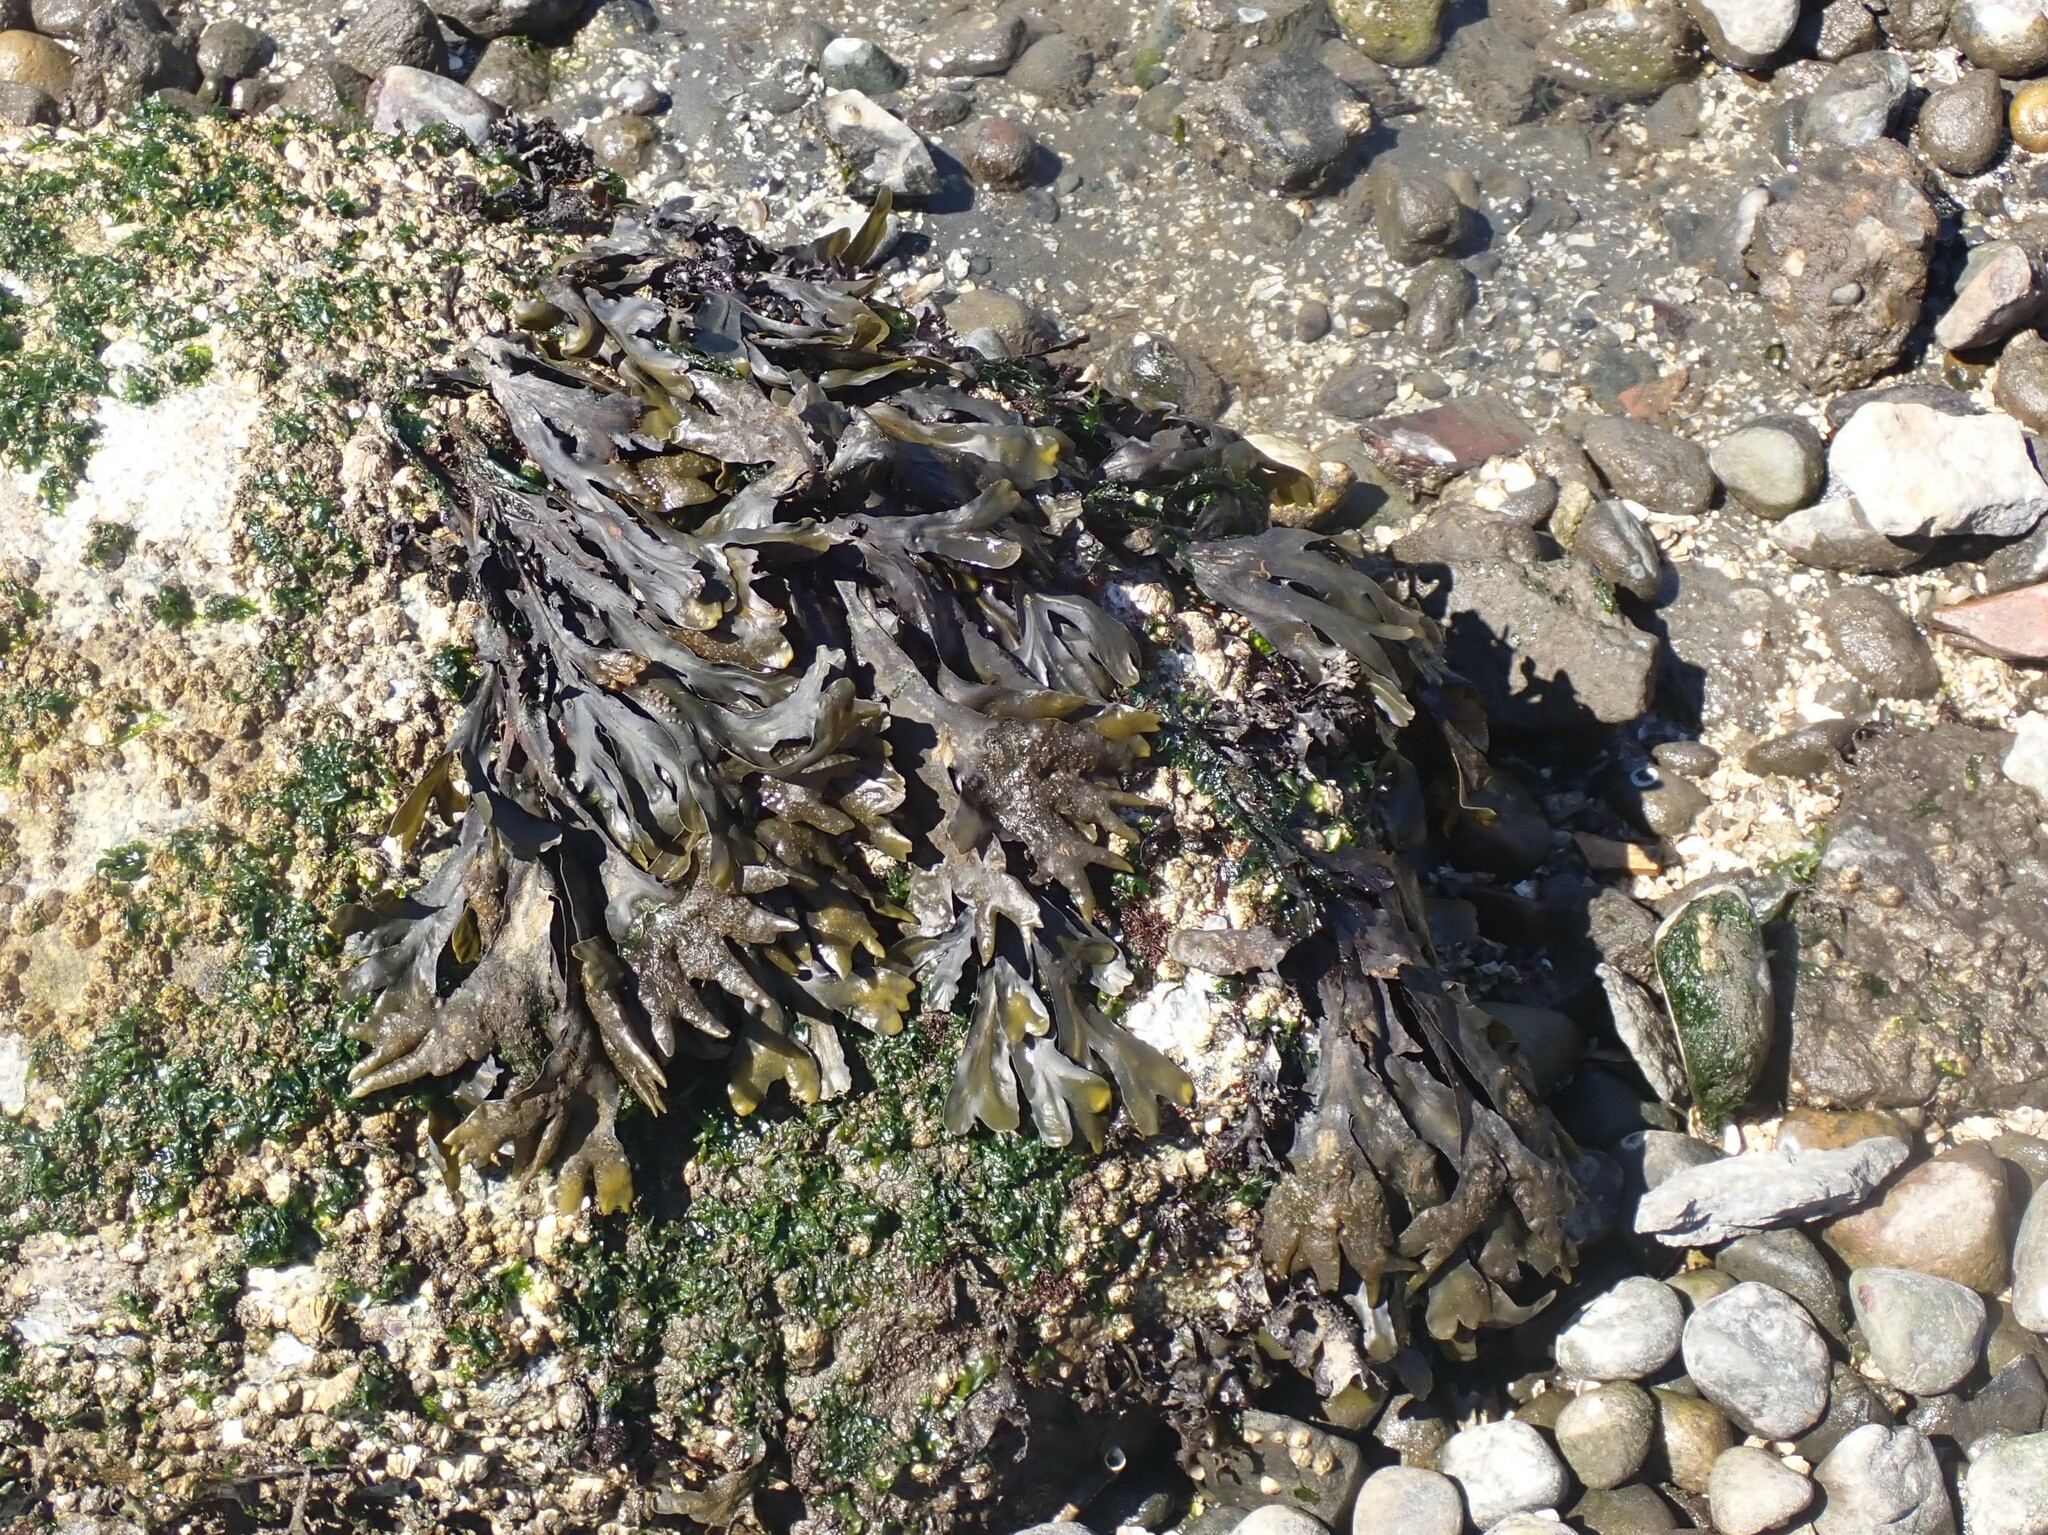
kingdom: Chromista
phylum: Ochrophyta
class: Phaeophyceae
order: Fucales
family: Fucaceae
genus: Fucus
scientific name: Fucus distichus
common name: Rockweed
